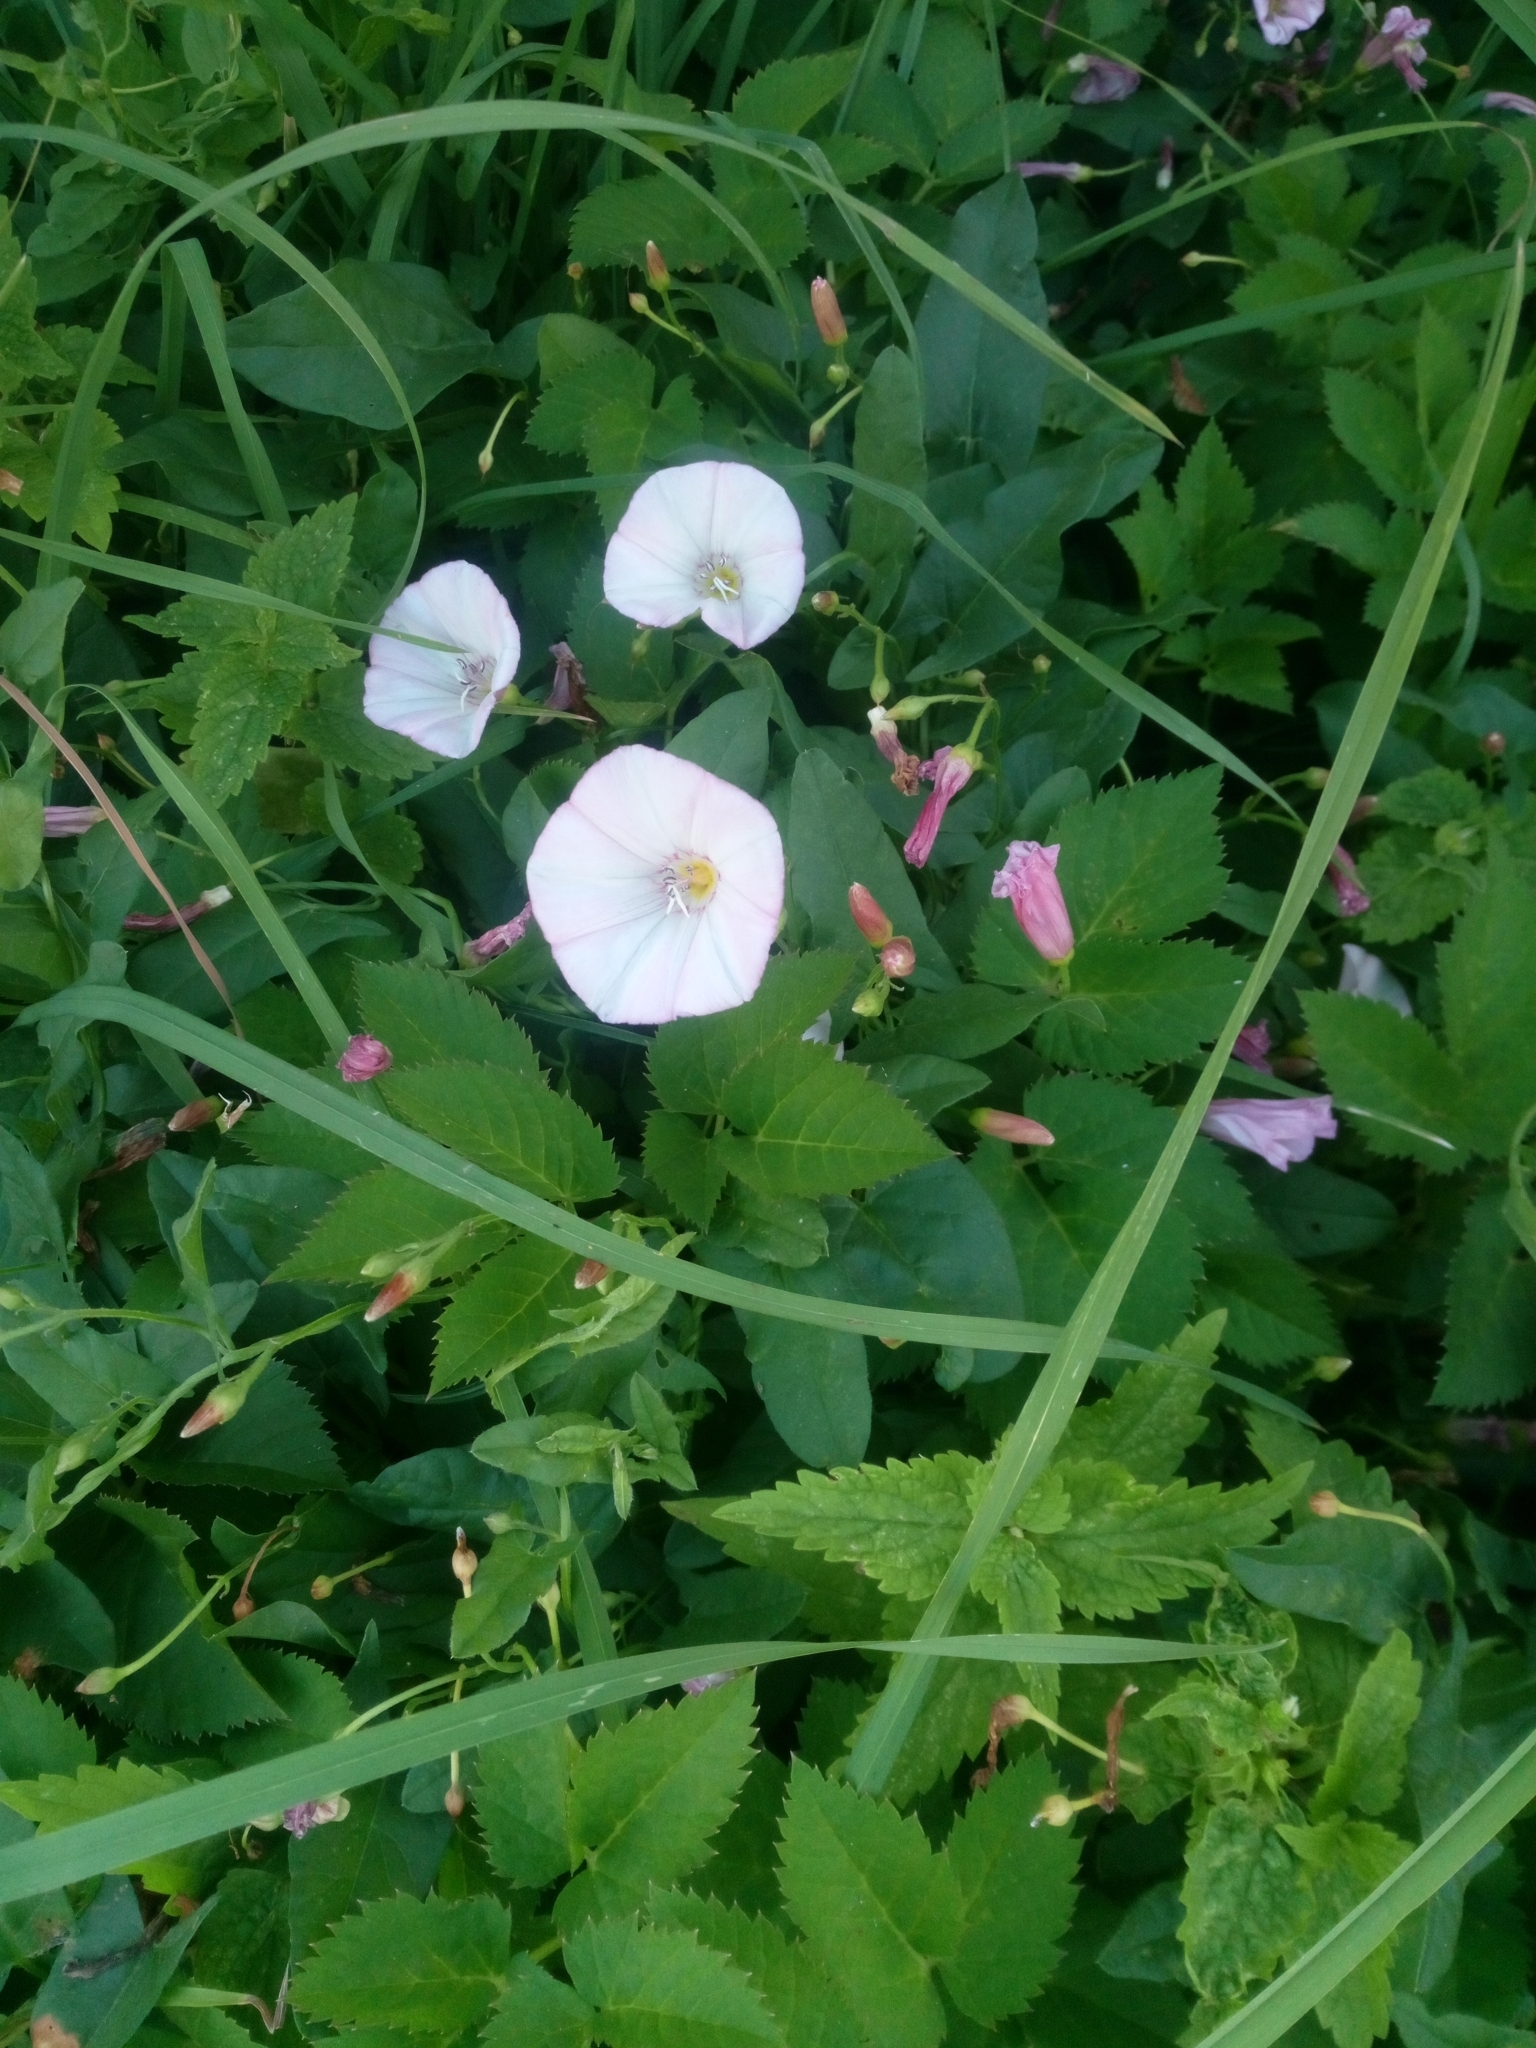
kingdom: Plantae
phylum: Tracheophyta
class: Magnoliopsida
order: Solanales
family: Convolvulaceae
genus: Convolvulus
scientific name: Convolvulus arvensis
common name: Field bindweed
